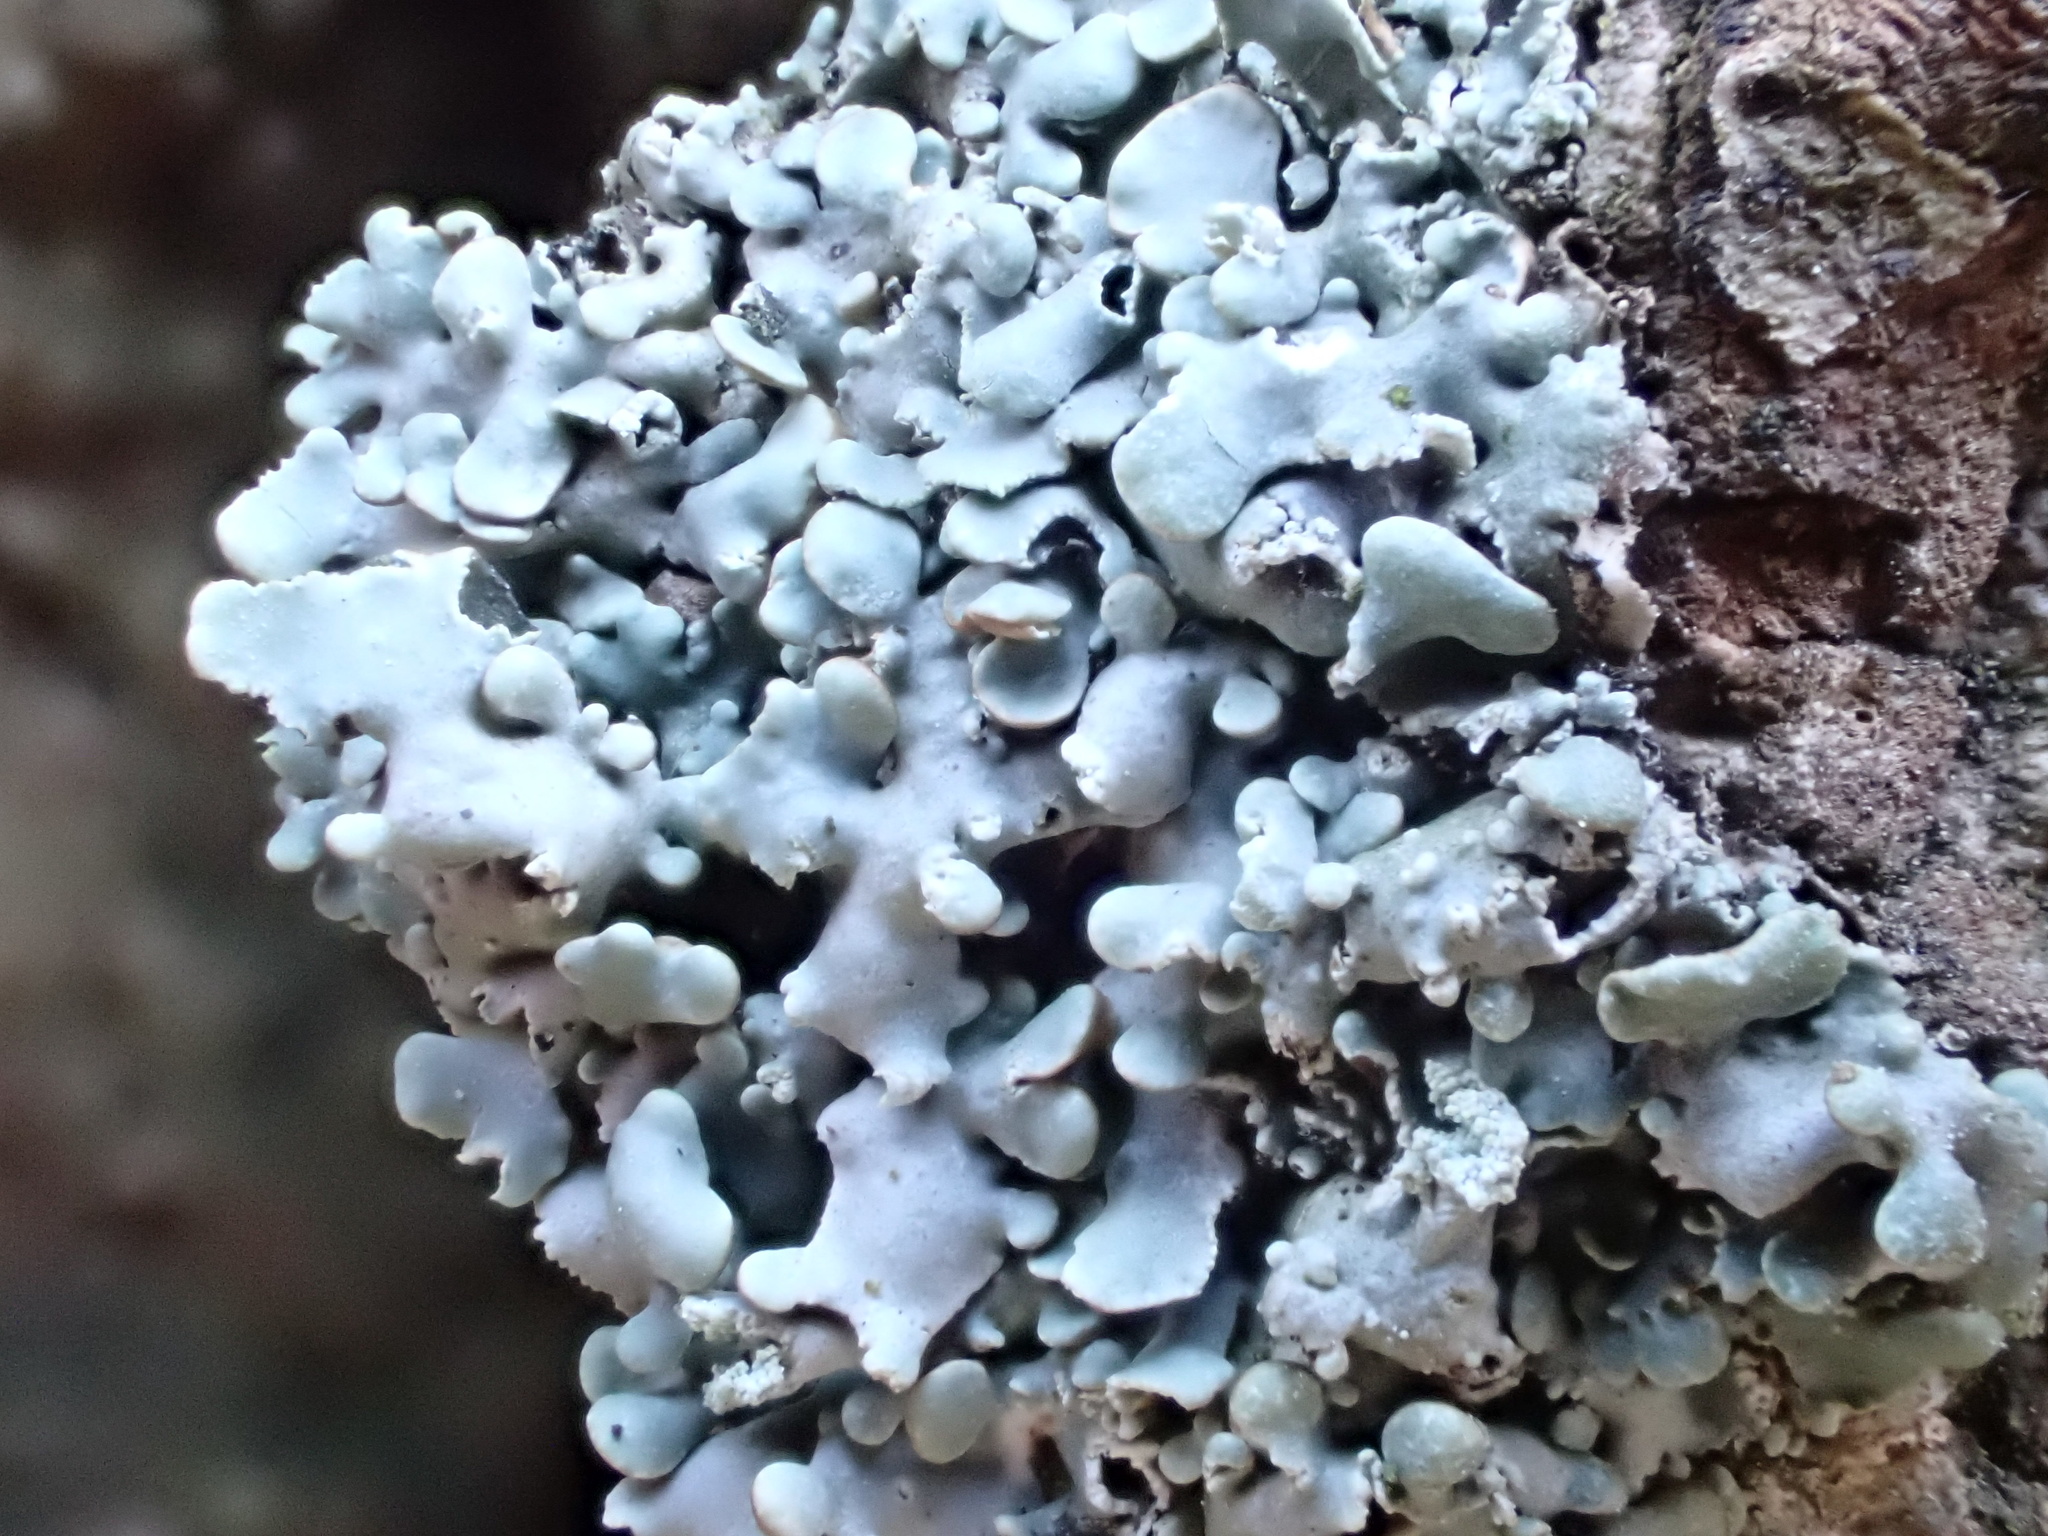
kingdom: Fungi
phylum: Ascomycota
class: Lecanoromycetes
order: Lecanorales
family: Parmeliaceae
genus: Hypogymnia
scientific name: Hypogymnia physodes
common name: Dark crottle
